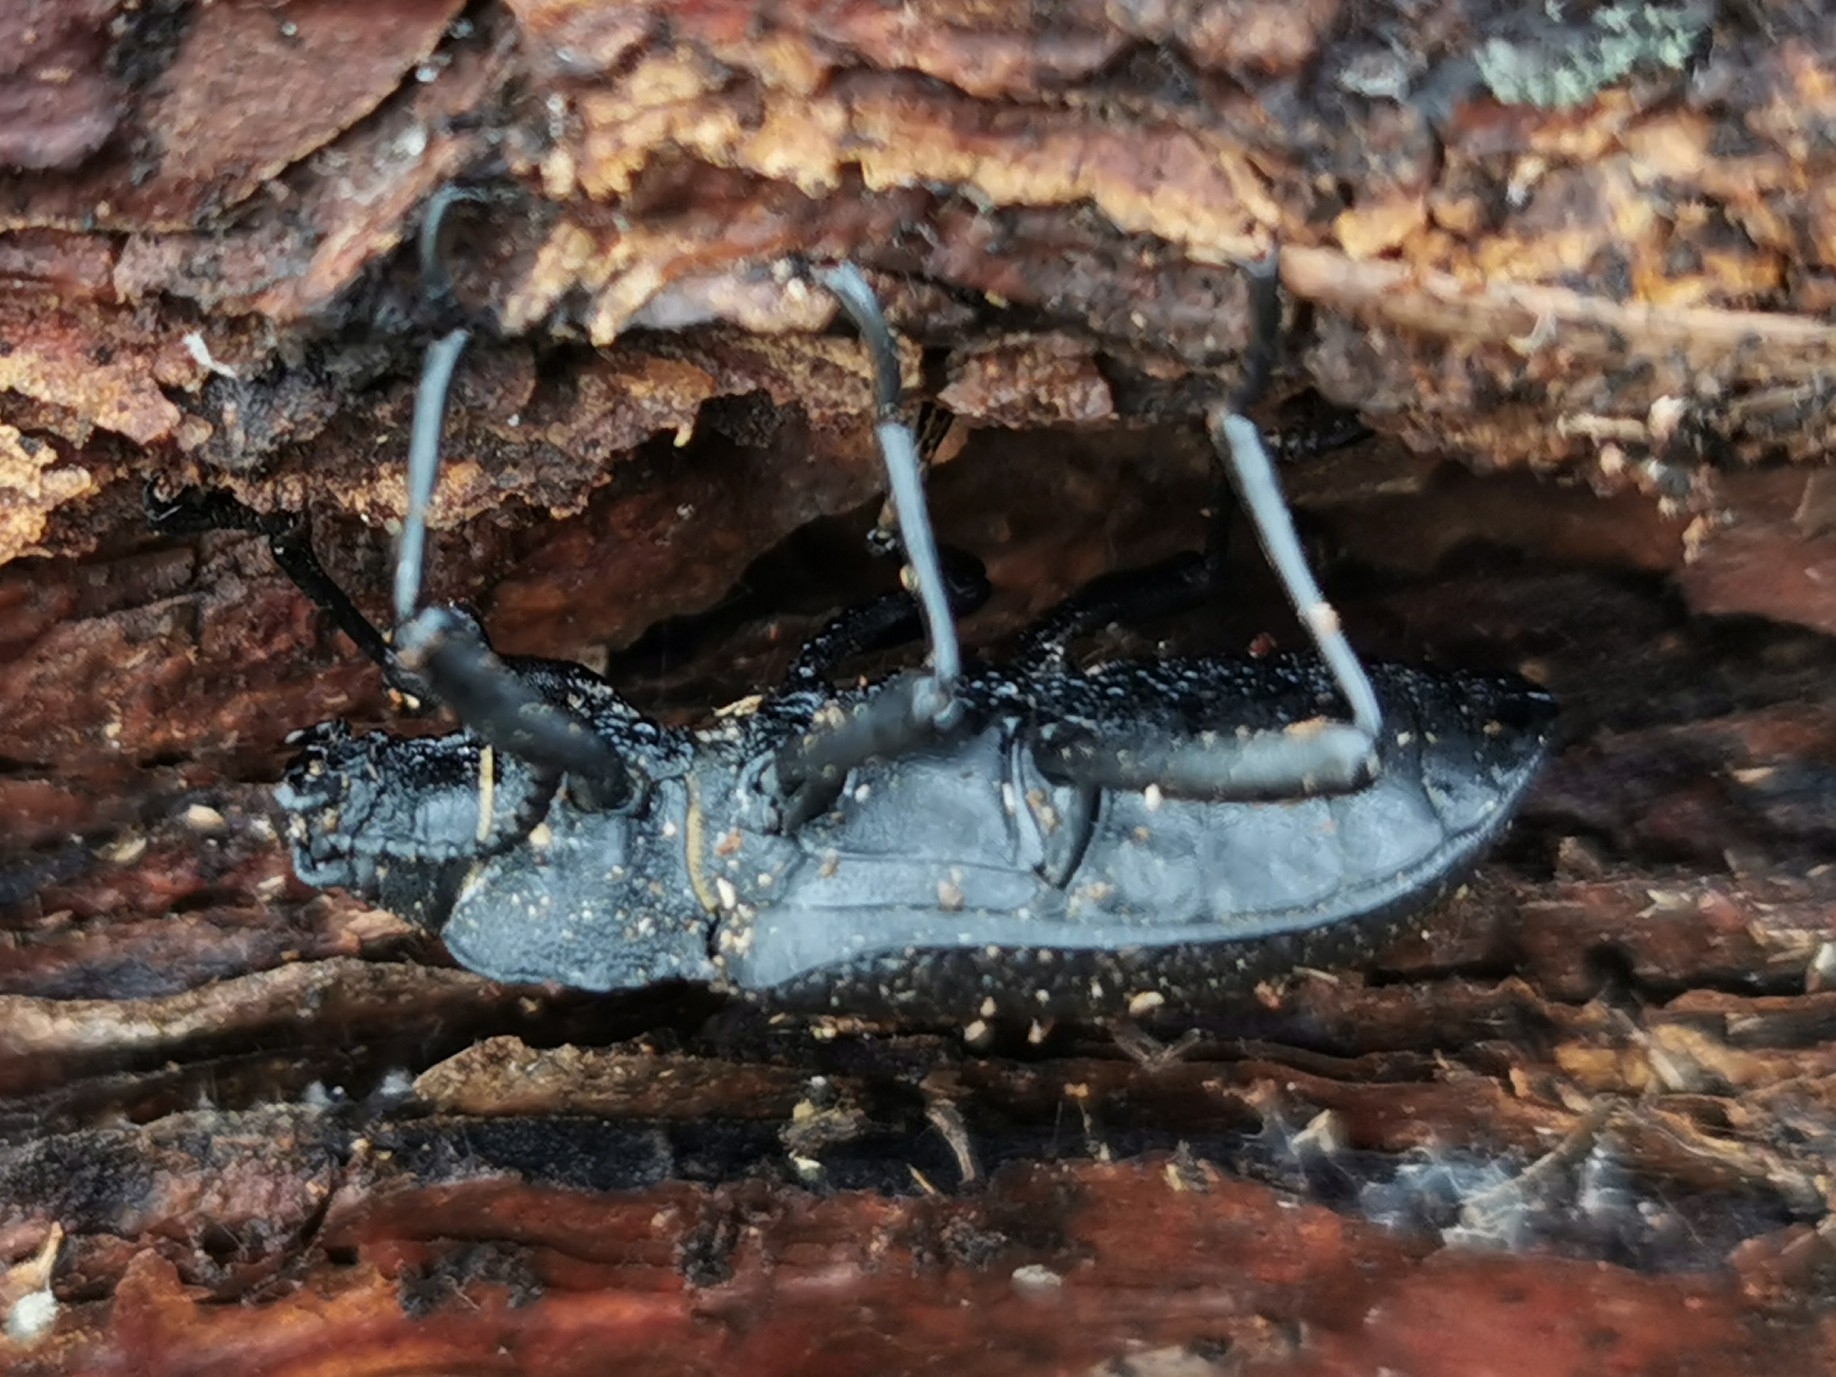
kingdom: Animalia
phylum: Arthropoda
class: Insecta
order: Coleoptera
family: Tenebrionidae
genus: Iphthiminus
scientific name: Iphthiminus serratus
